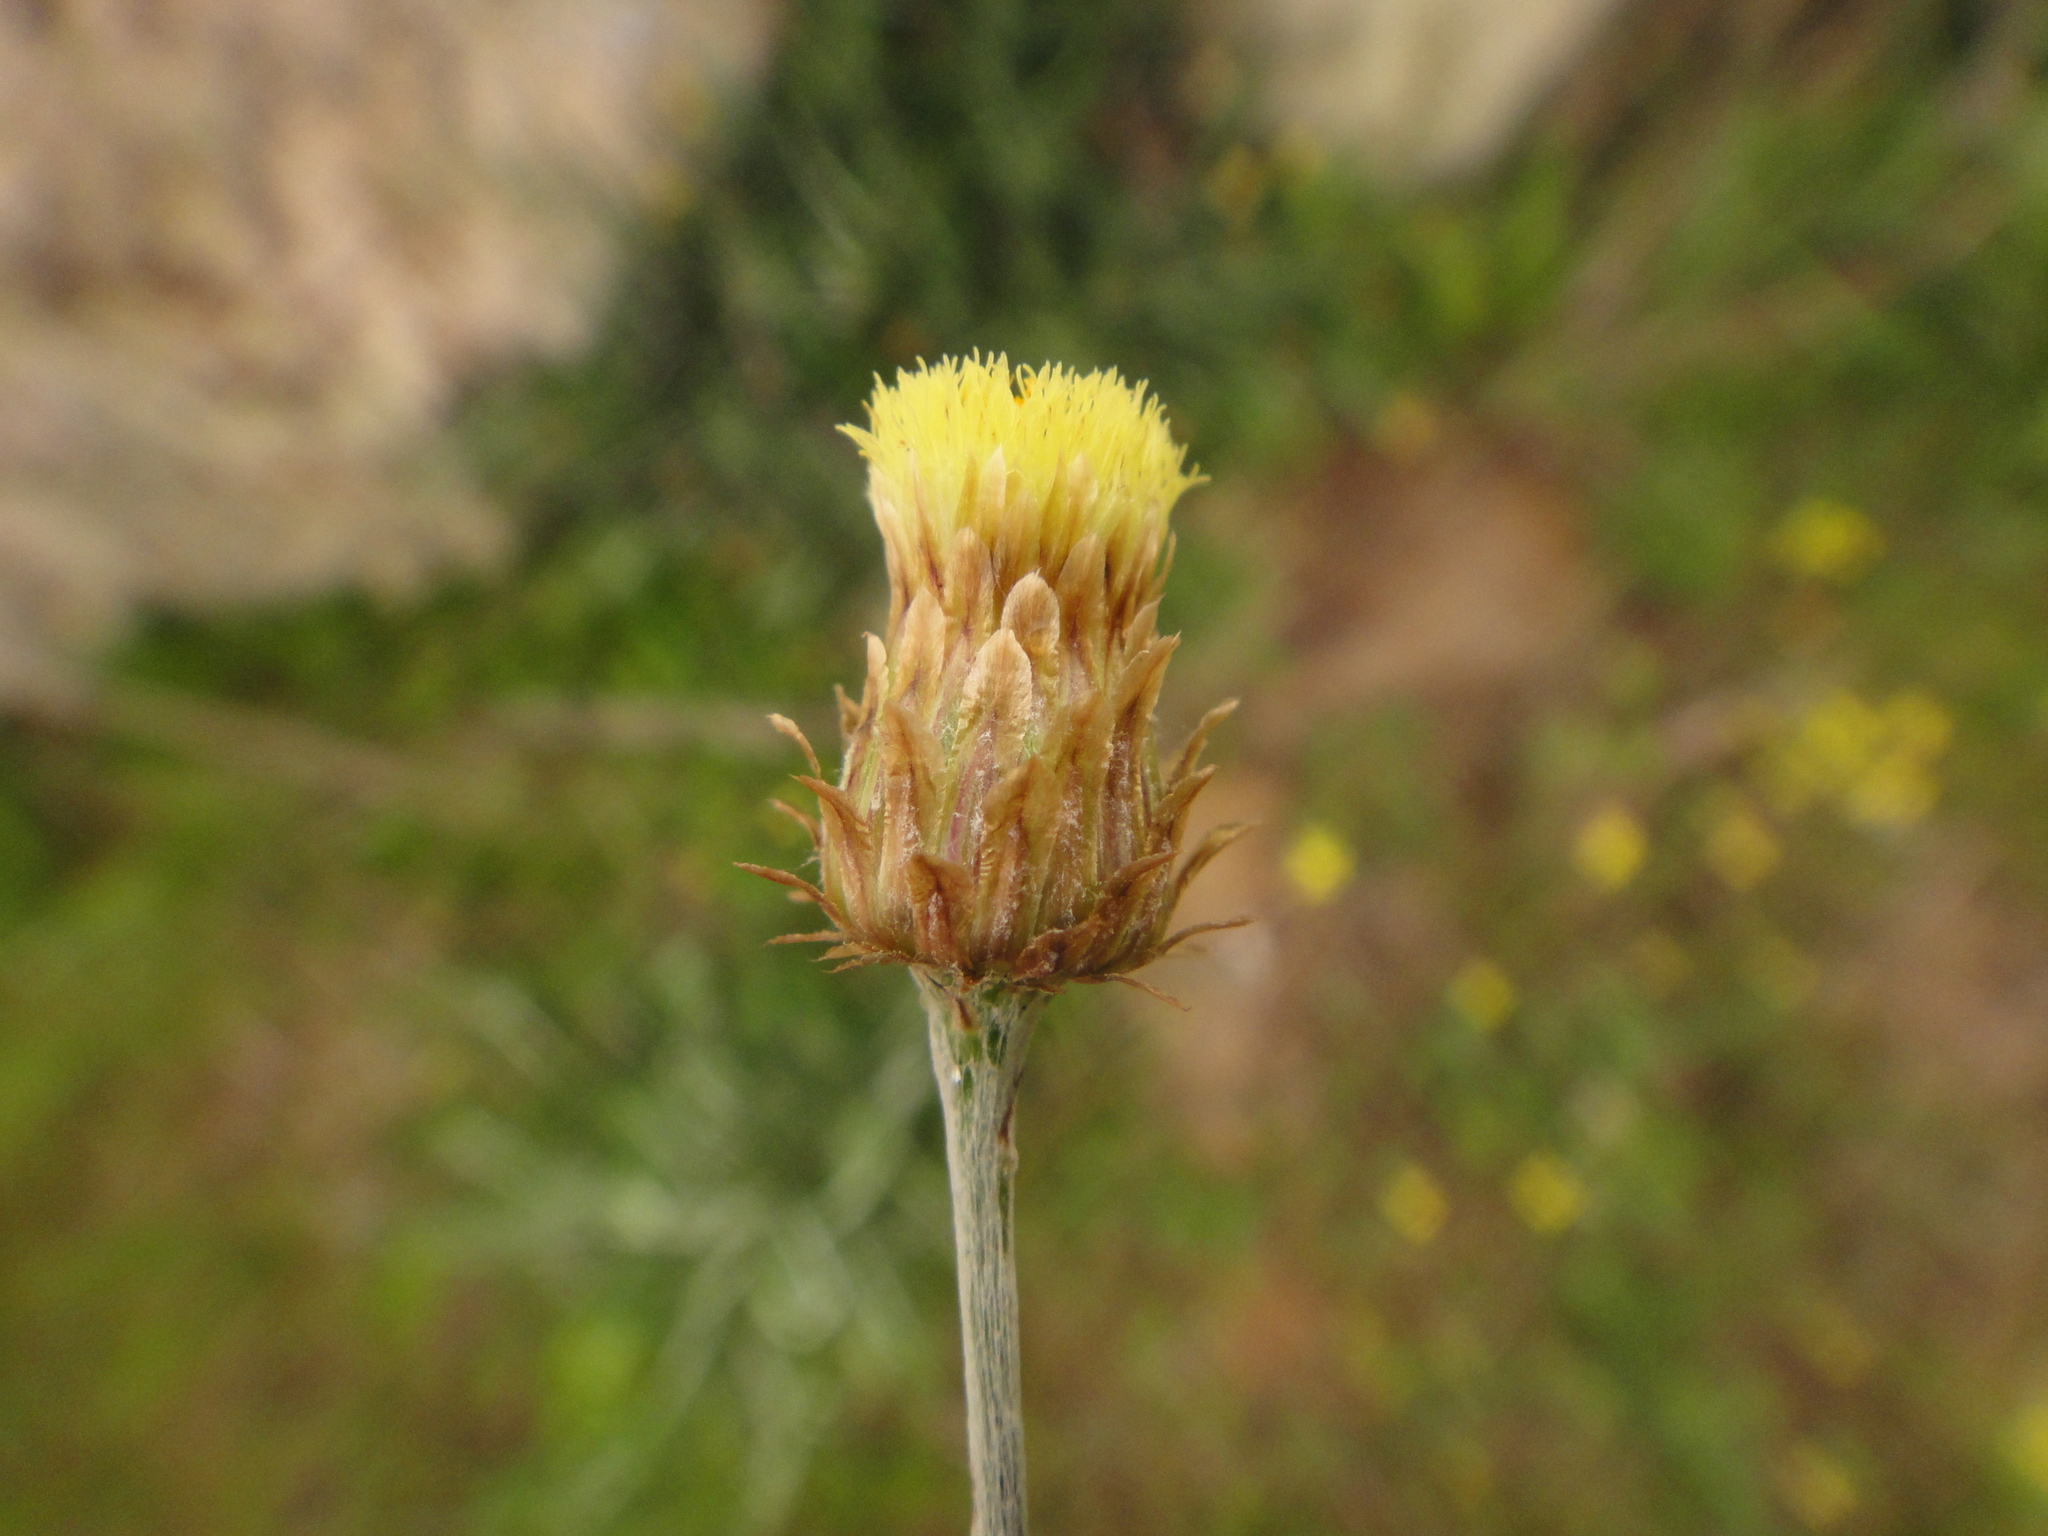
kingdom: Plantae
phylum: Tracheophyta
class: Magnoliopsida
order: Asterales
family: Asteraceae
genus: Phagnalon
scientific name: Phagnalon saxatile
